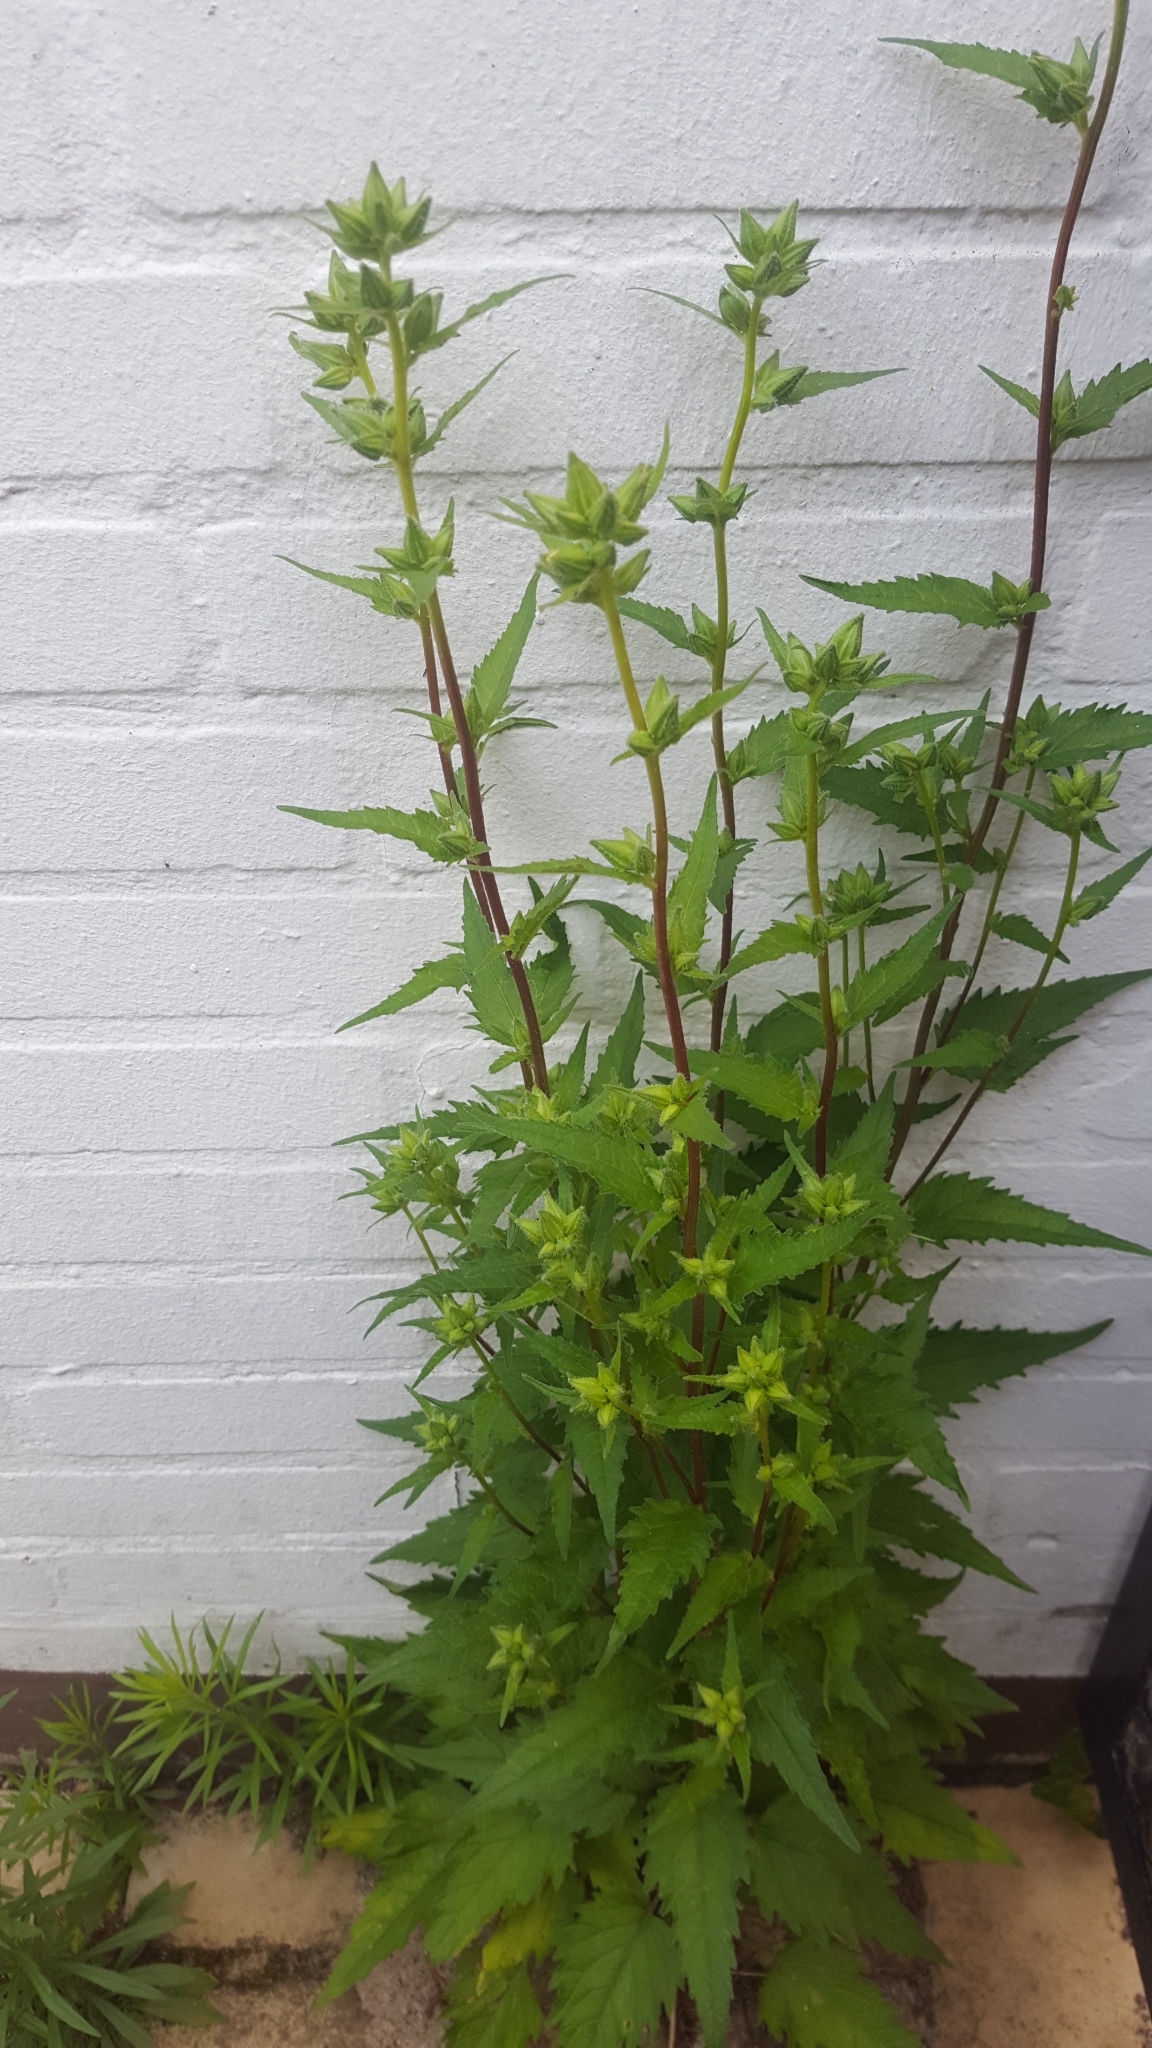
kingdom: Plantae
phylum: Tracheophyta
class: Magnoliopsida
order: Asterales
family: Campanulaceae
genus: Campanula
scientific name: Campanula trachelium
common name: Nettle-leaved bellflower
